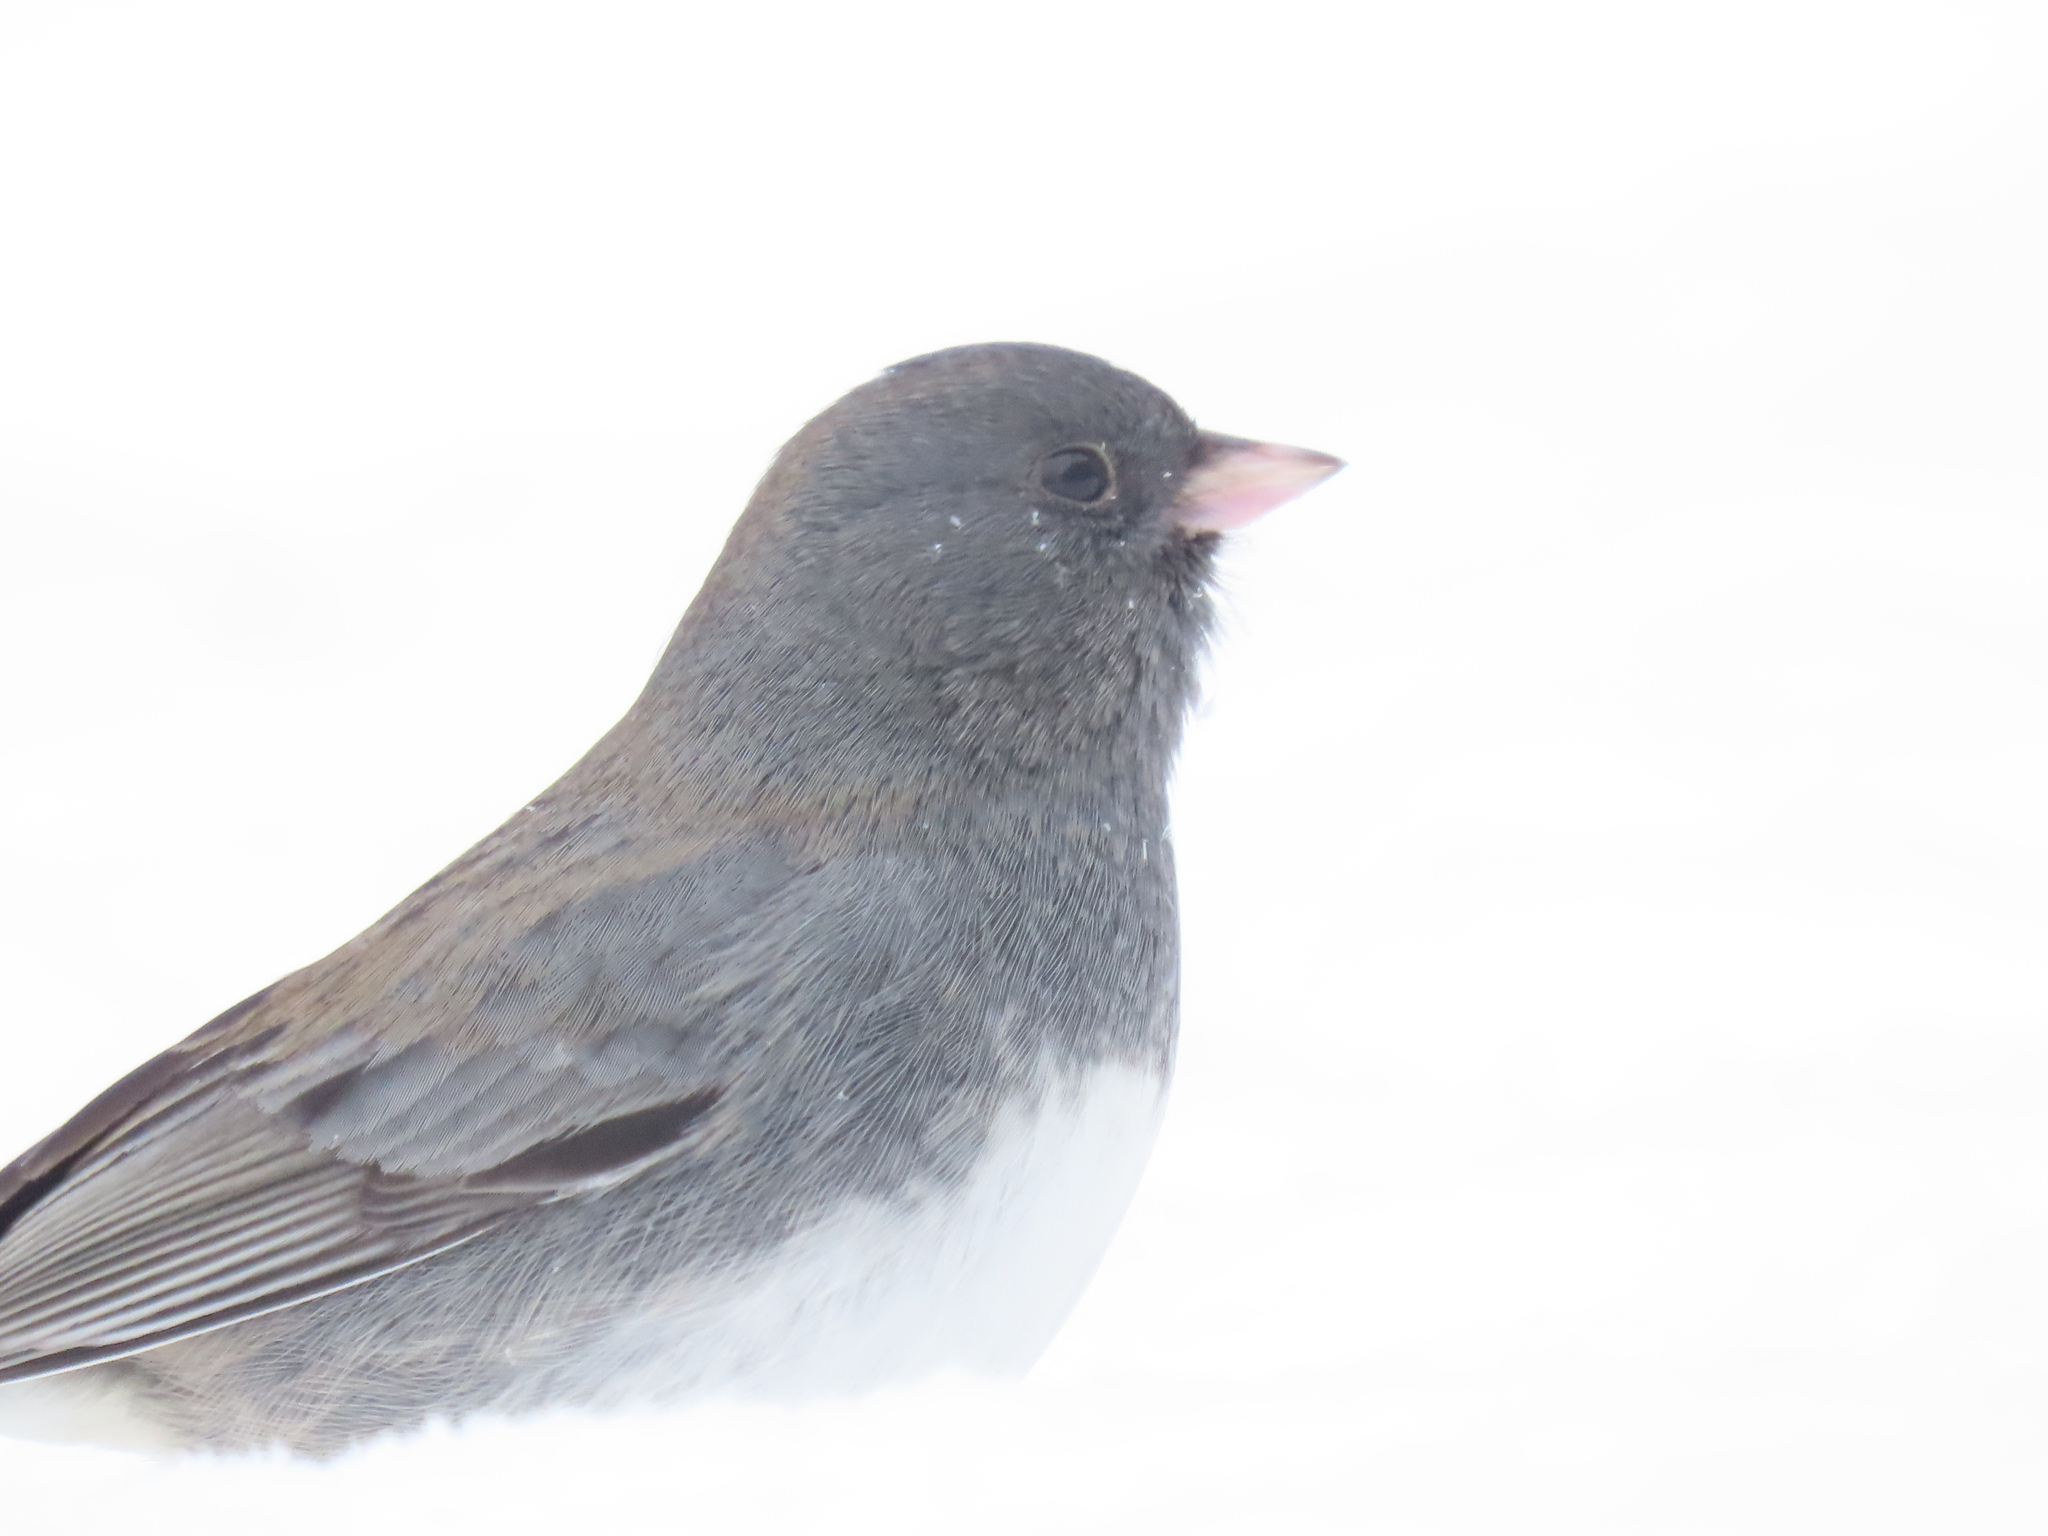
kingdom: Animalia
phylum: Chordata
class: Aves
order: Passeriformes
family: Passerellidae
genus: Junco
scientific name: Junco hyemalis
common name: Dark-eyed junco
